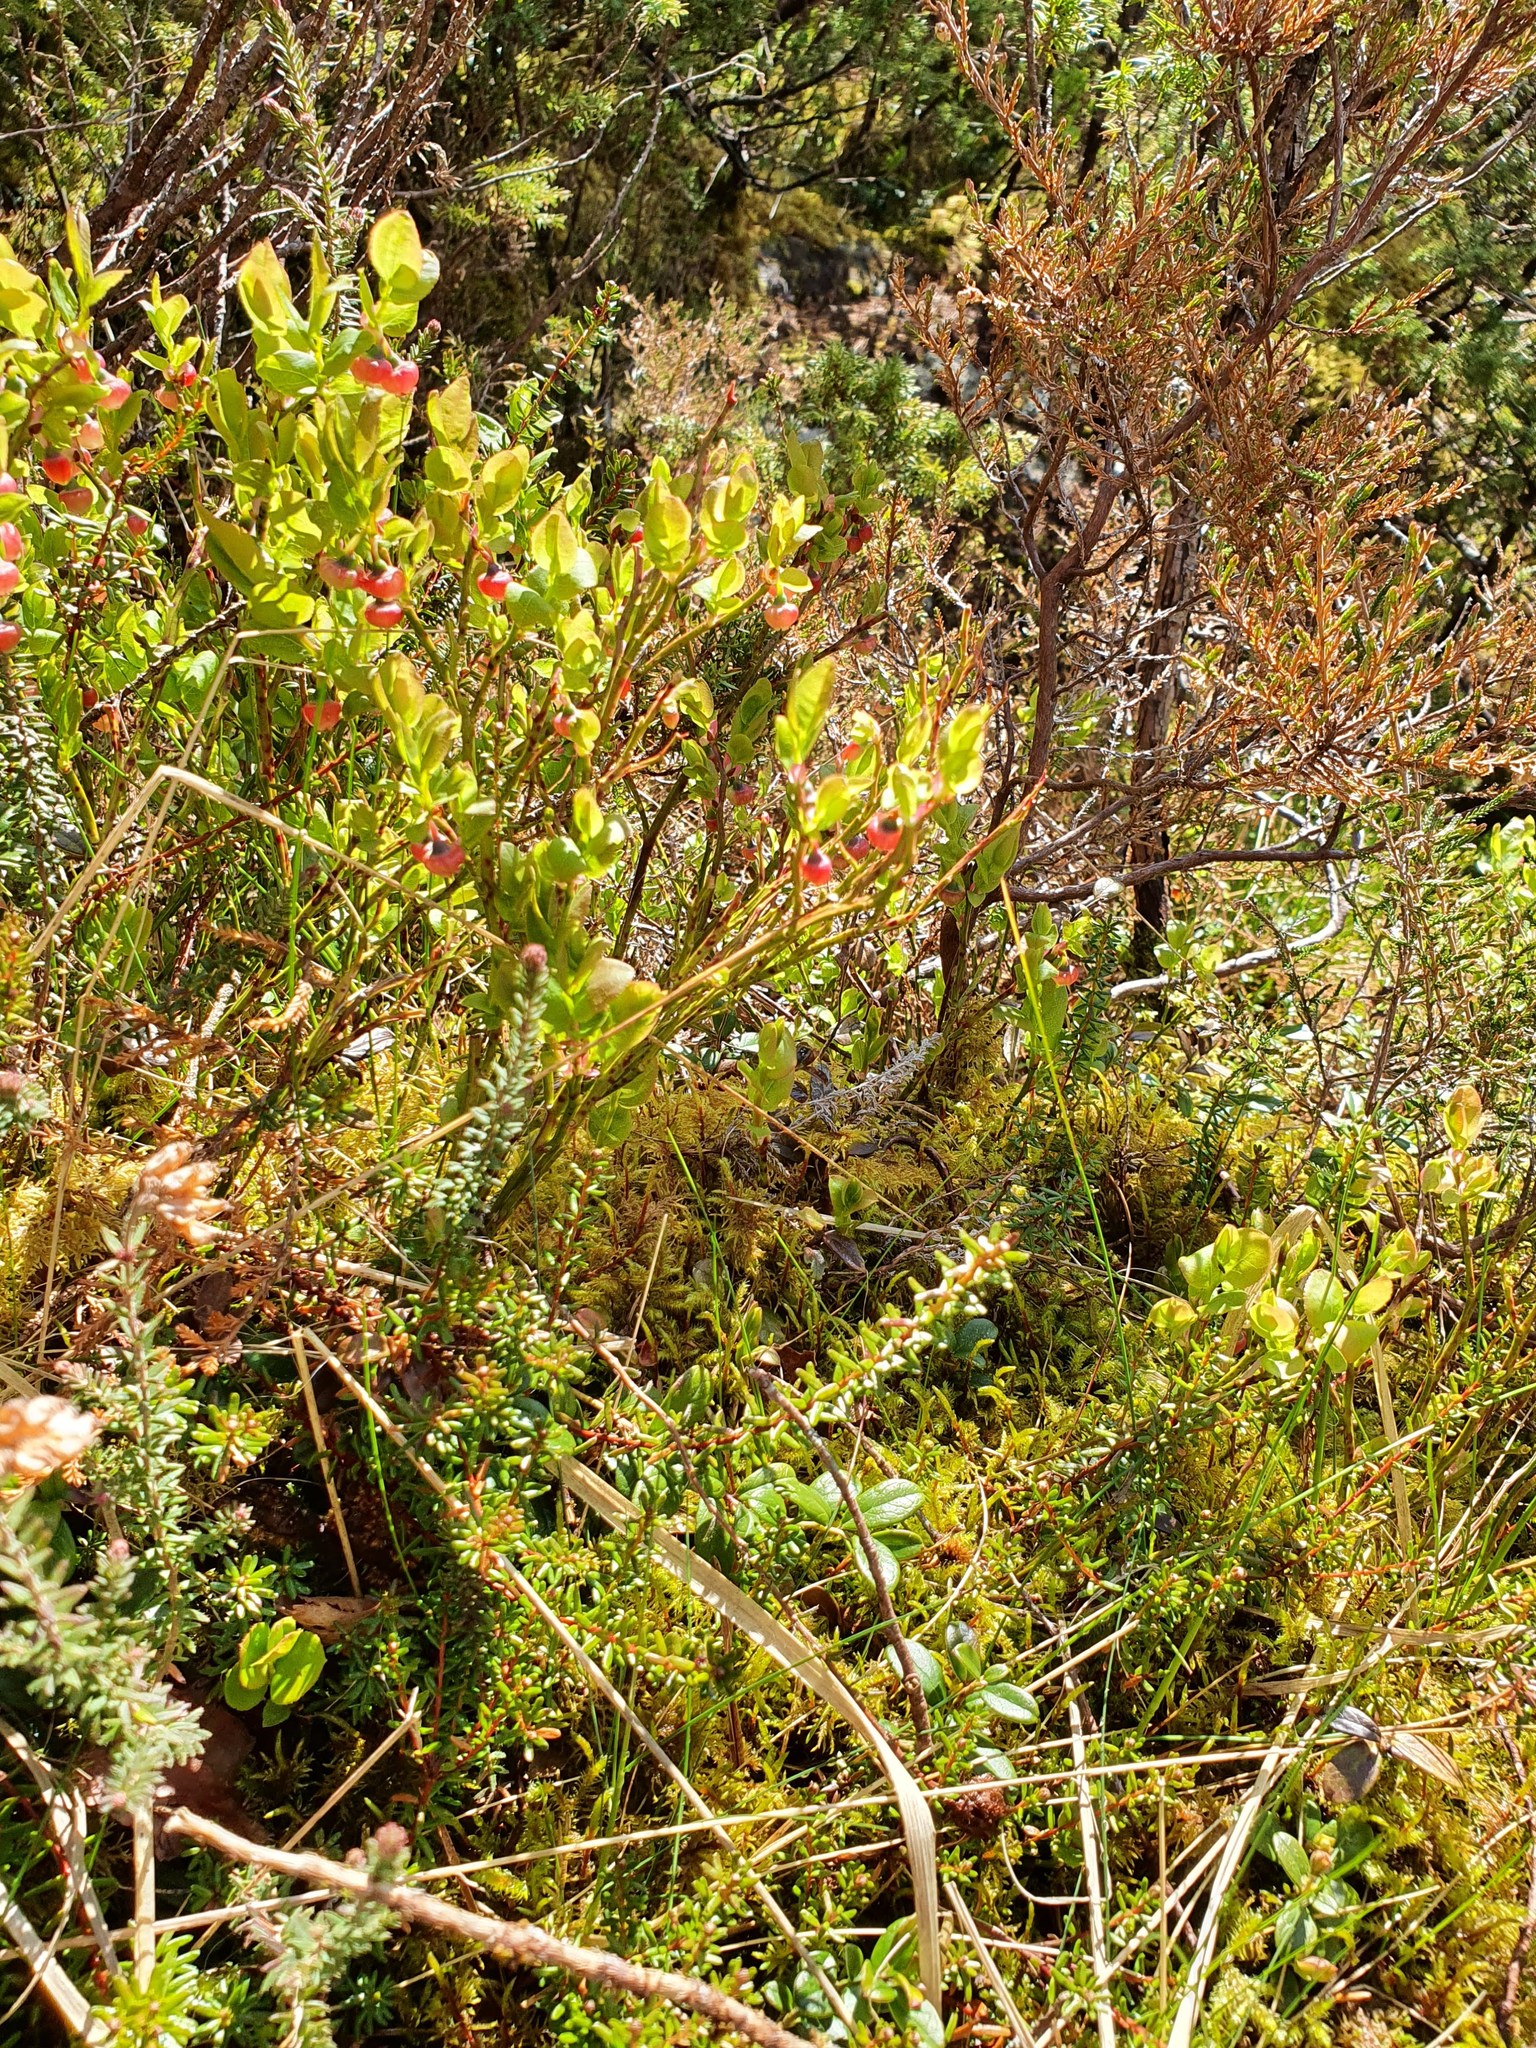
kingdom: Plantae
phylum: Tracheophyta
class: Magnoliopsida
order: Ericales
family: Ericaceae
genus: Erica
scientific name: Erica tetralix
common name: Cross-leaved heath
